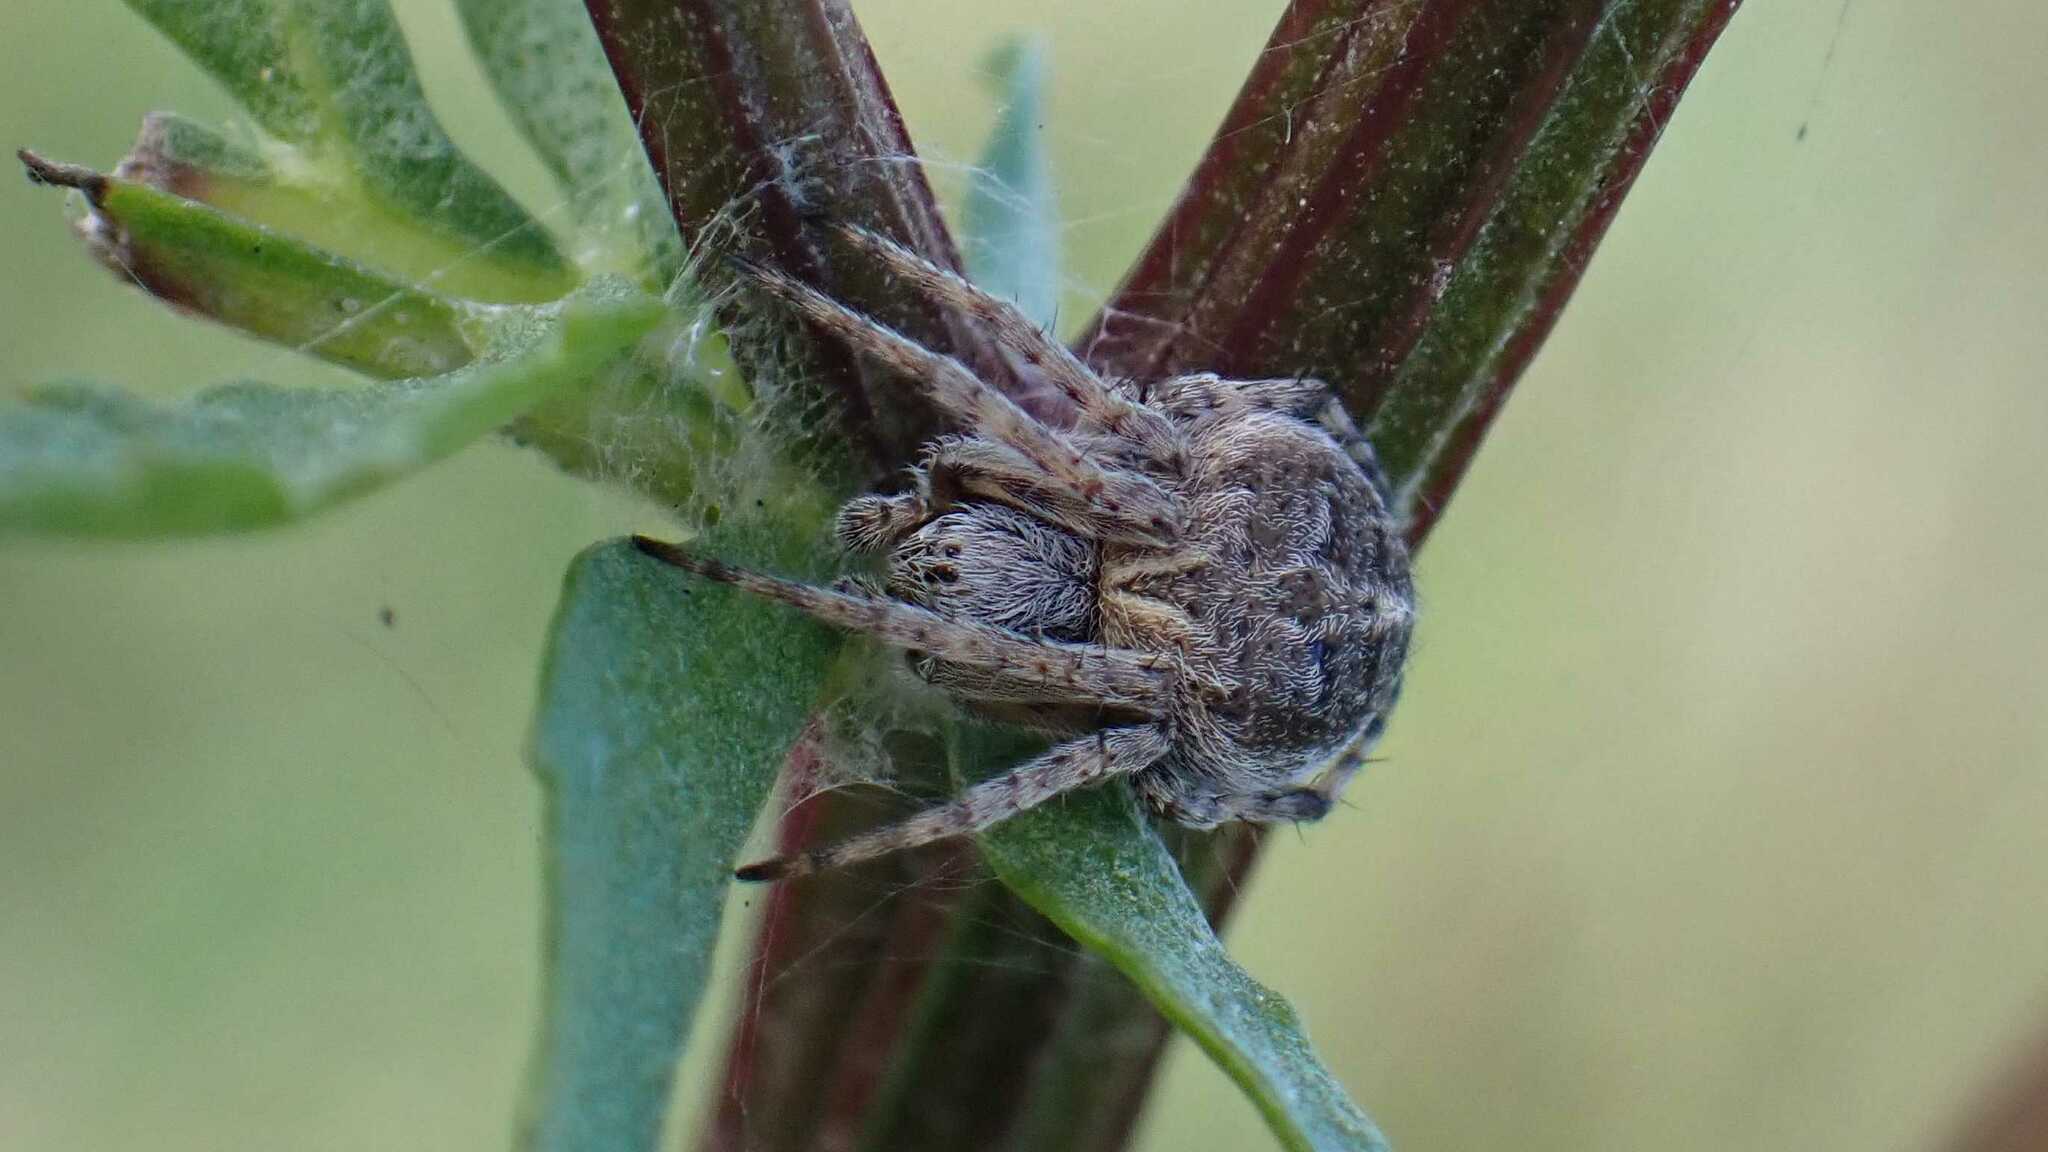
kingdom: Animalia
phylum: Arthropoda
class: Arachnida
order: Araneae
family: Araneidae
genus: Agalenatea
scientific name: Agalenatea redii
